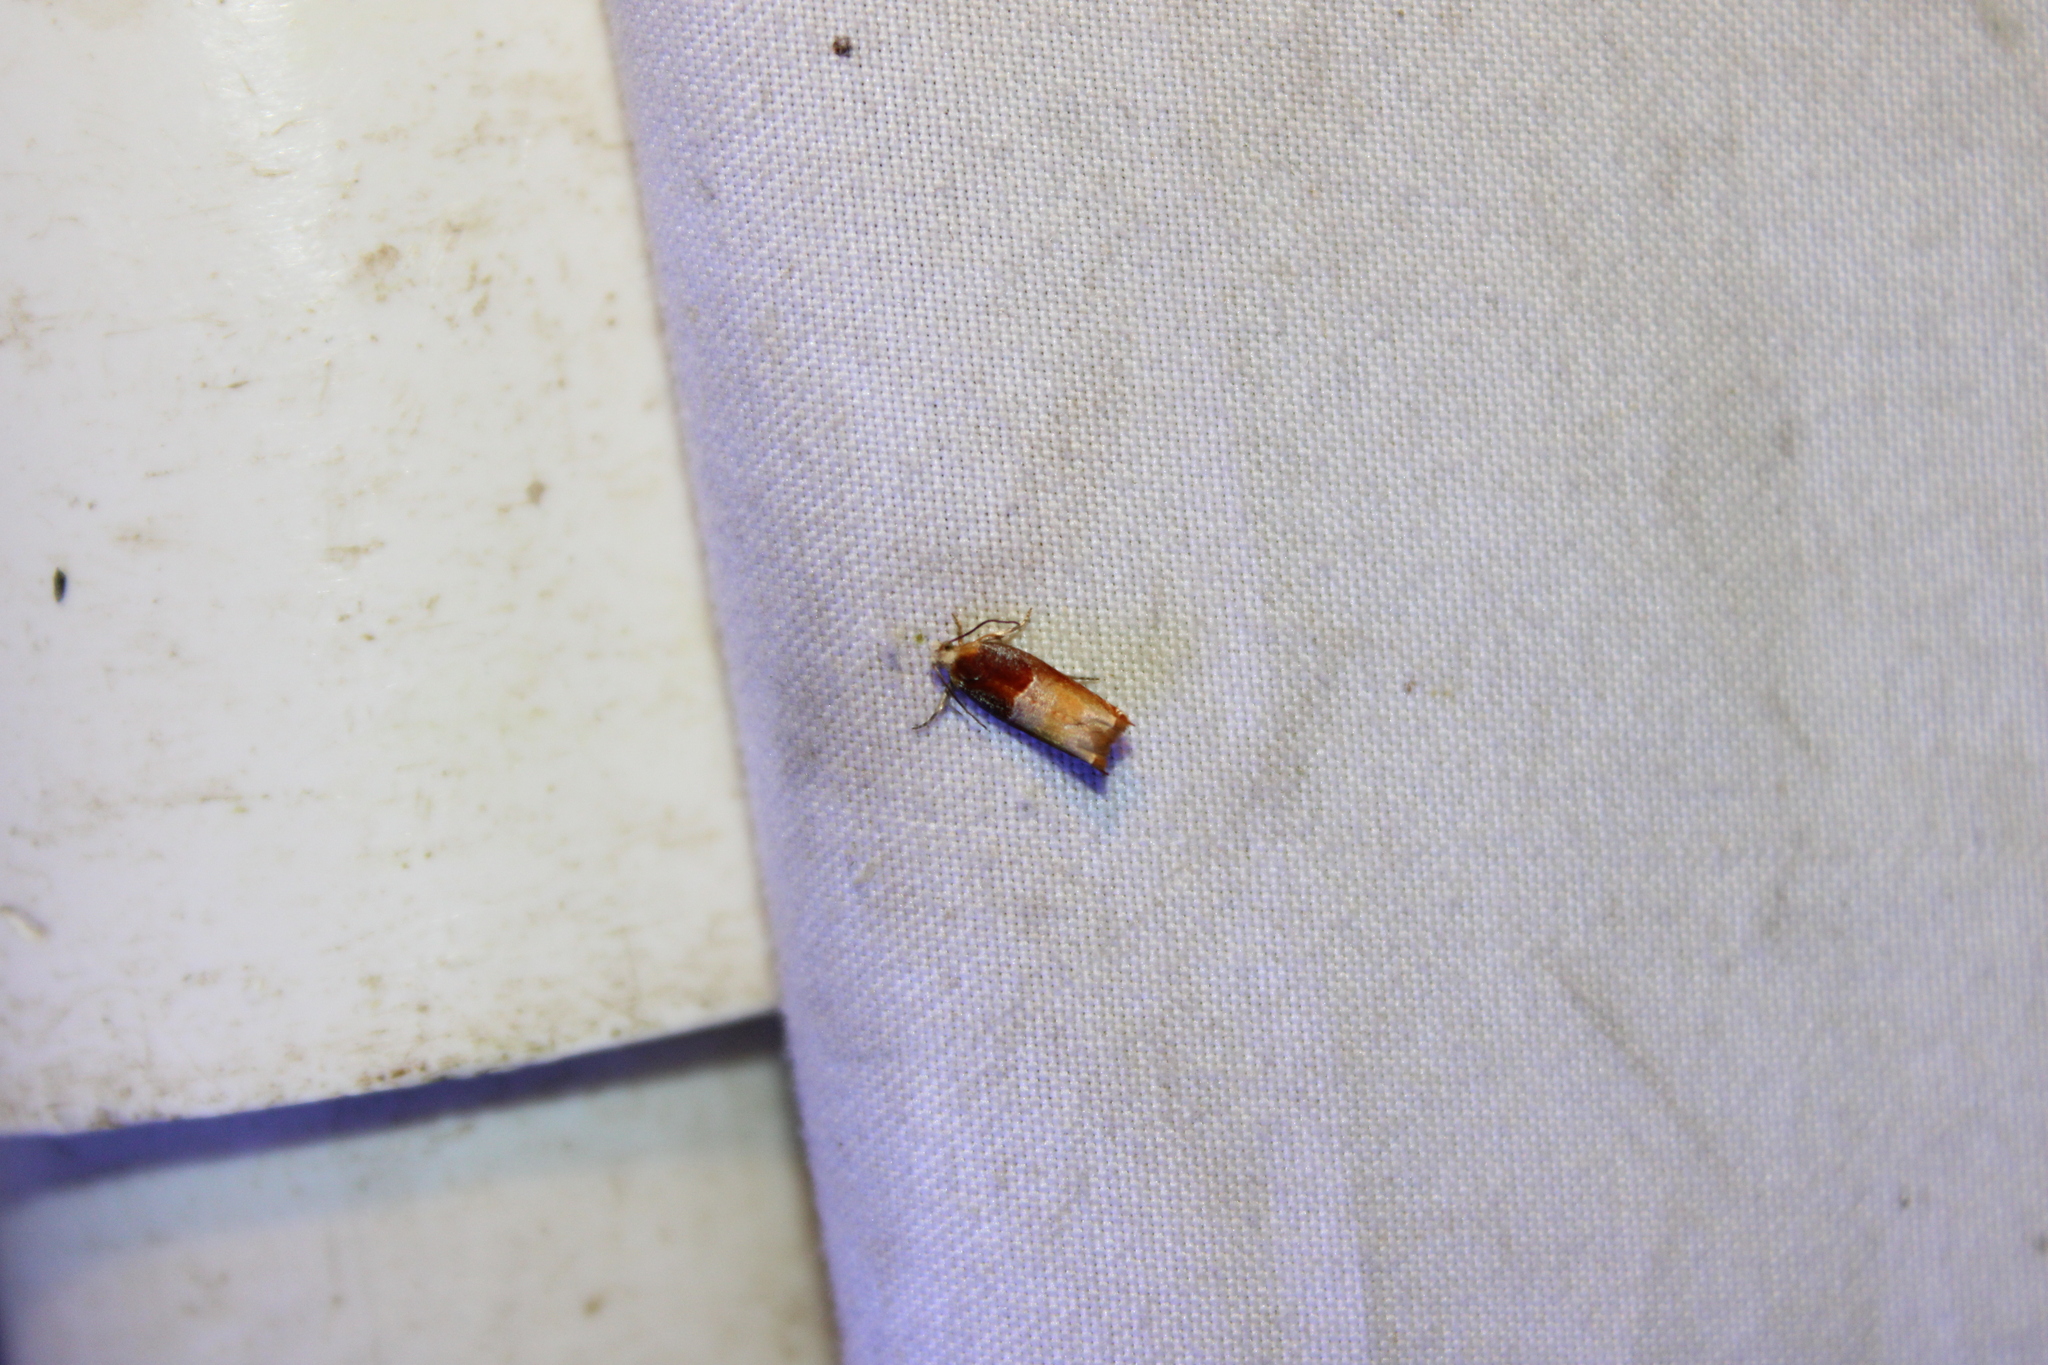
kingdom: Animalia
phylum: Arthropoda
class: Insecta
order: Lepidoptera
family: Tortricidae
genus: Ancylis
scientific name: Ancylis divisana
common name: Two-toned ancylis moth
